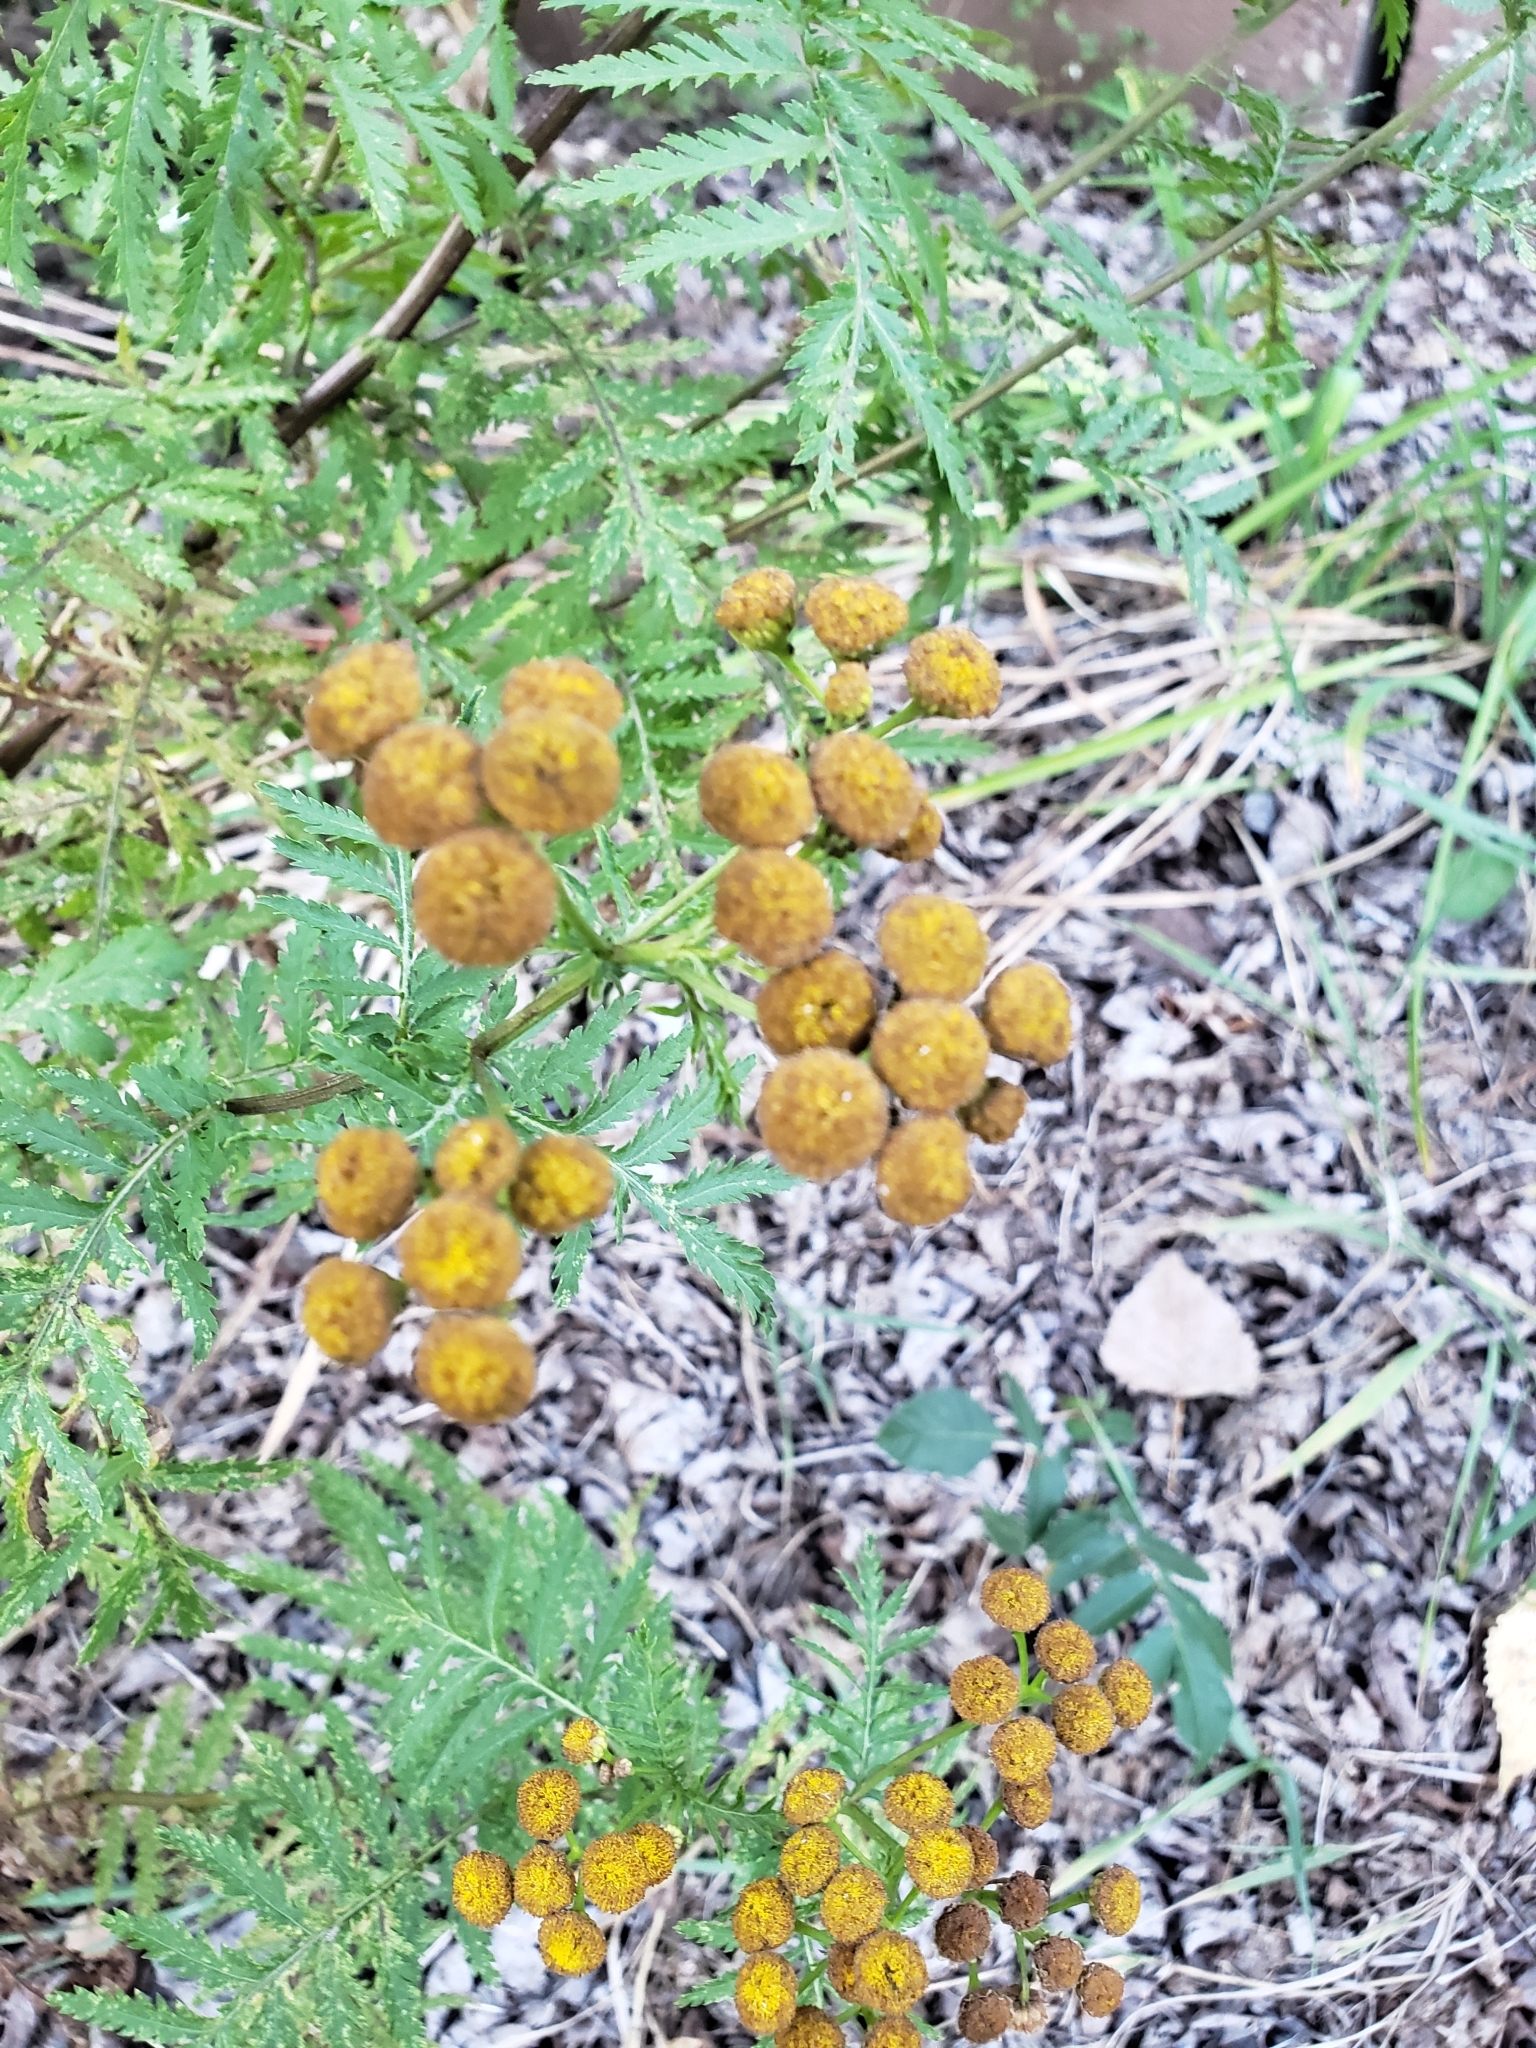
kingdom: Plantae
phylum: Tracheophyta
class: Magnoliopsida
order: Asterales
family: Asteraceae
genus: Tanacetum
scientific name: Tanacetum vulgare
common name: Common tansy
